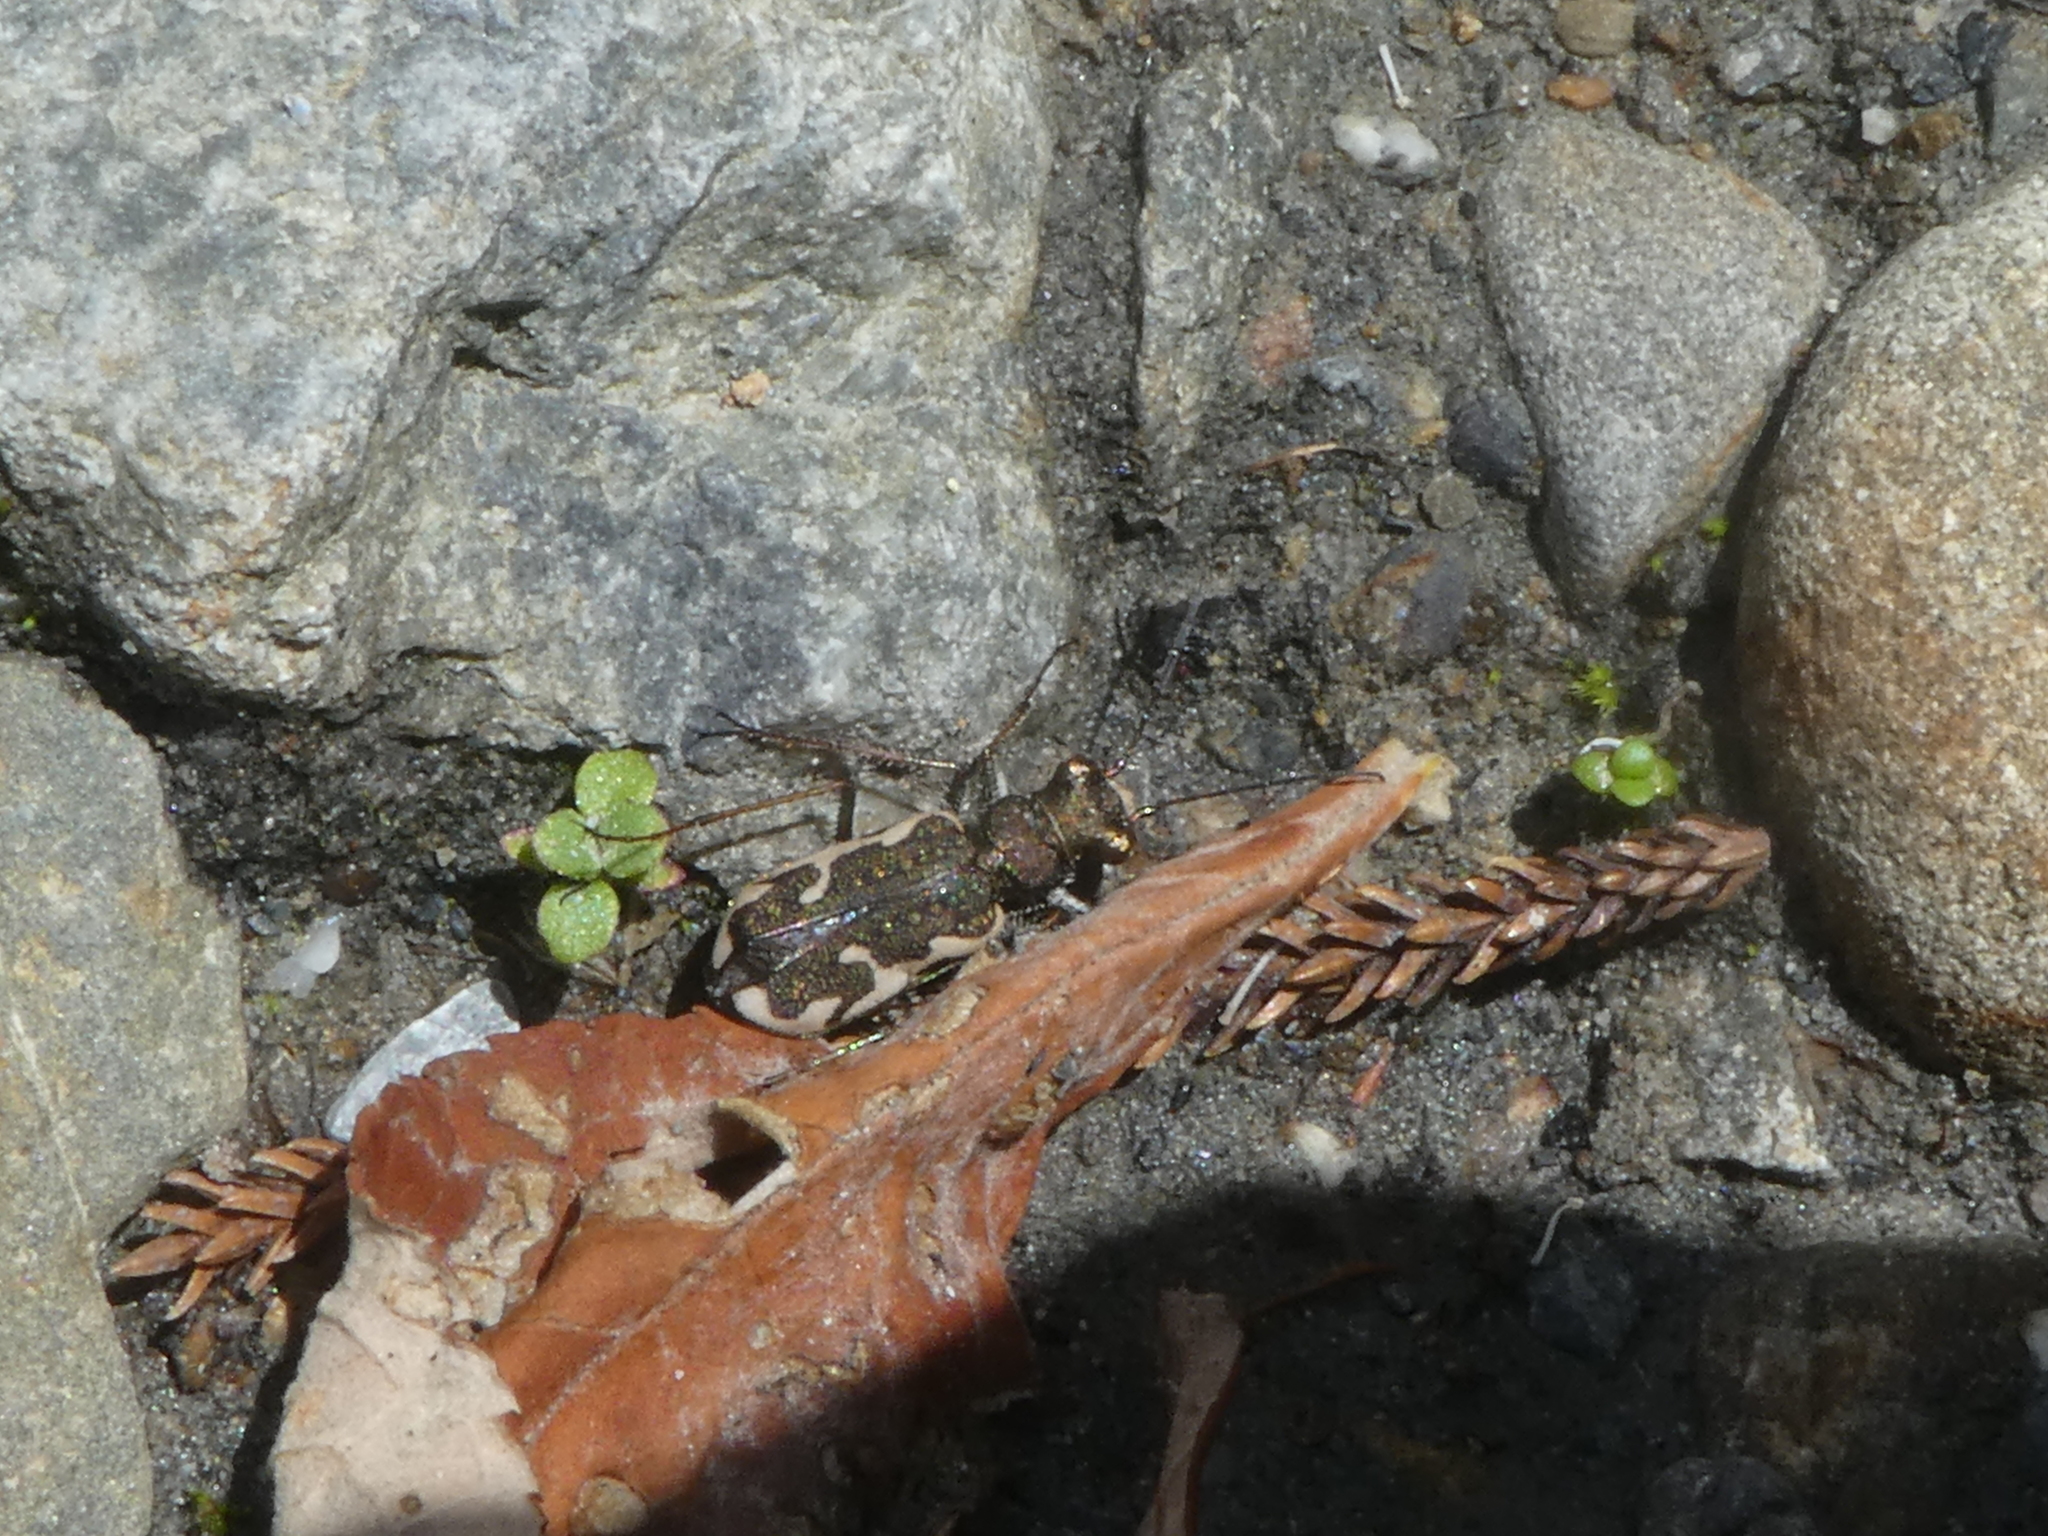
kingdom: Animalia
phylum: Arthropoda
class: Insecta
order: Coleoptera
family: Carabidae
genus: Neocicindela
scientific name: Neocicindela tuberculata
